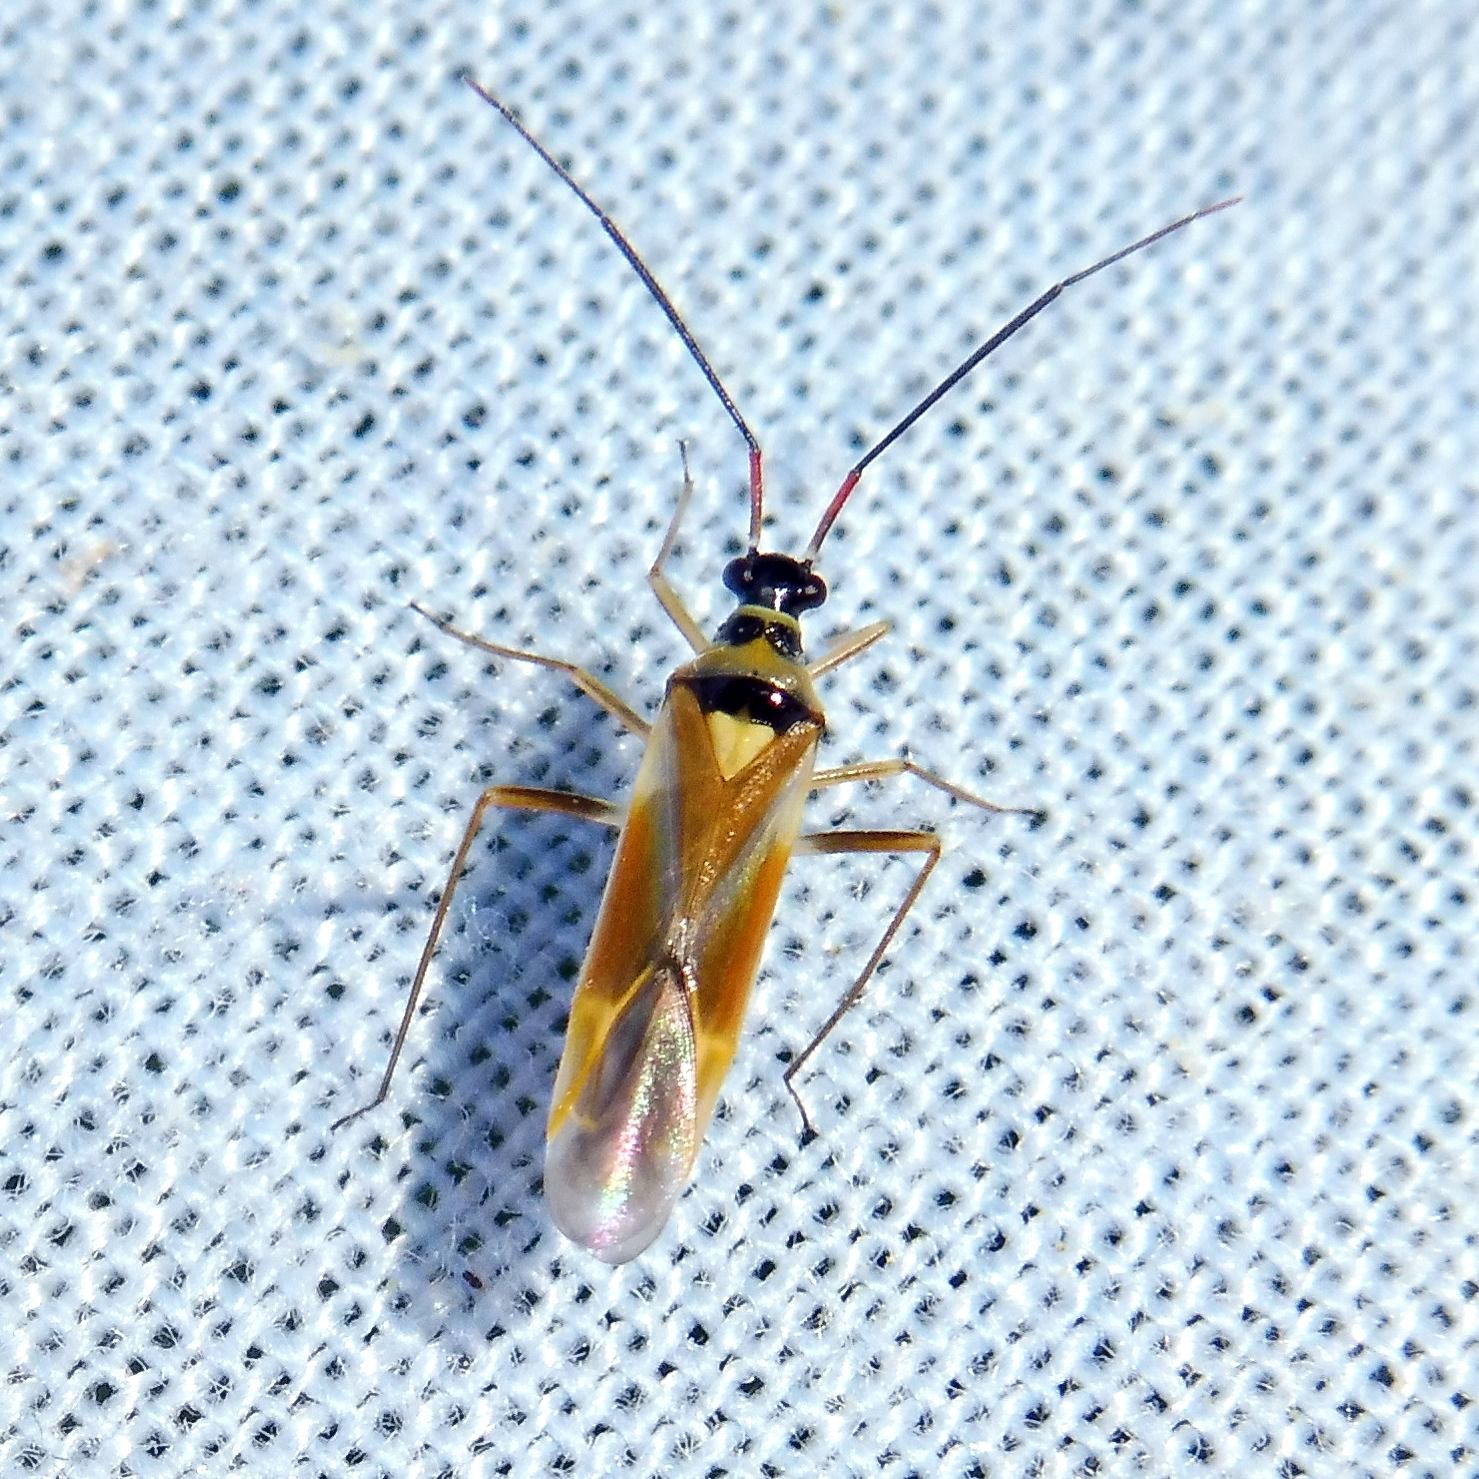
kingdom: Animalia
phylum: Arthropoda
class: Insecta
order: Hemiptera
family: Miridae
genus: Cyllecoris
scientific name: Cyllecoris histrionius
